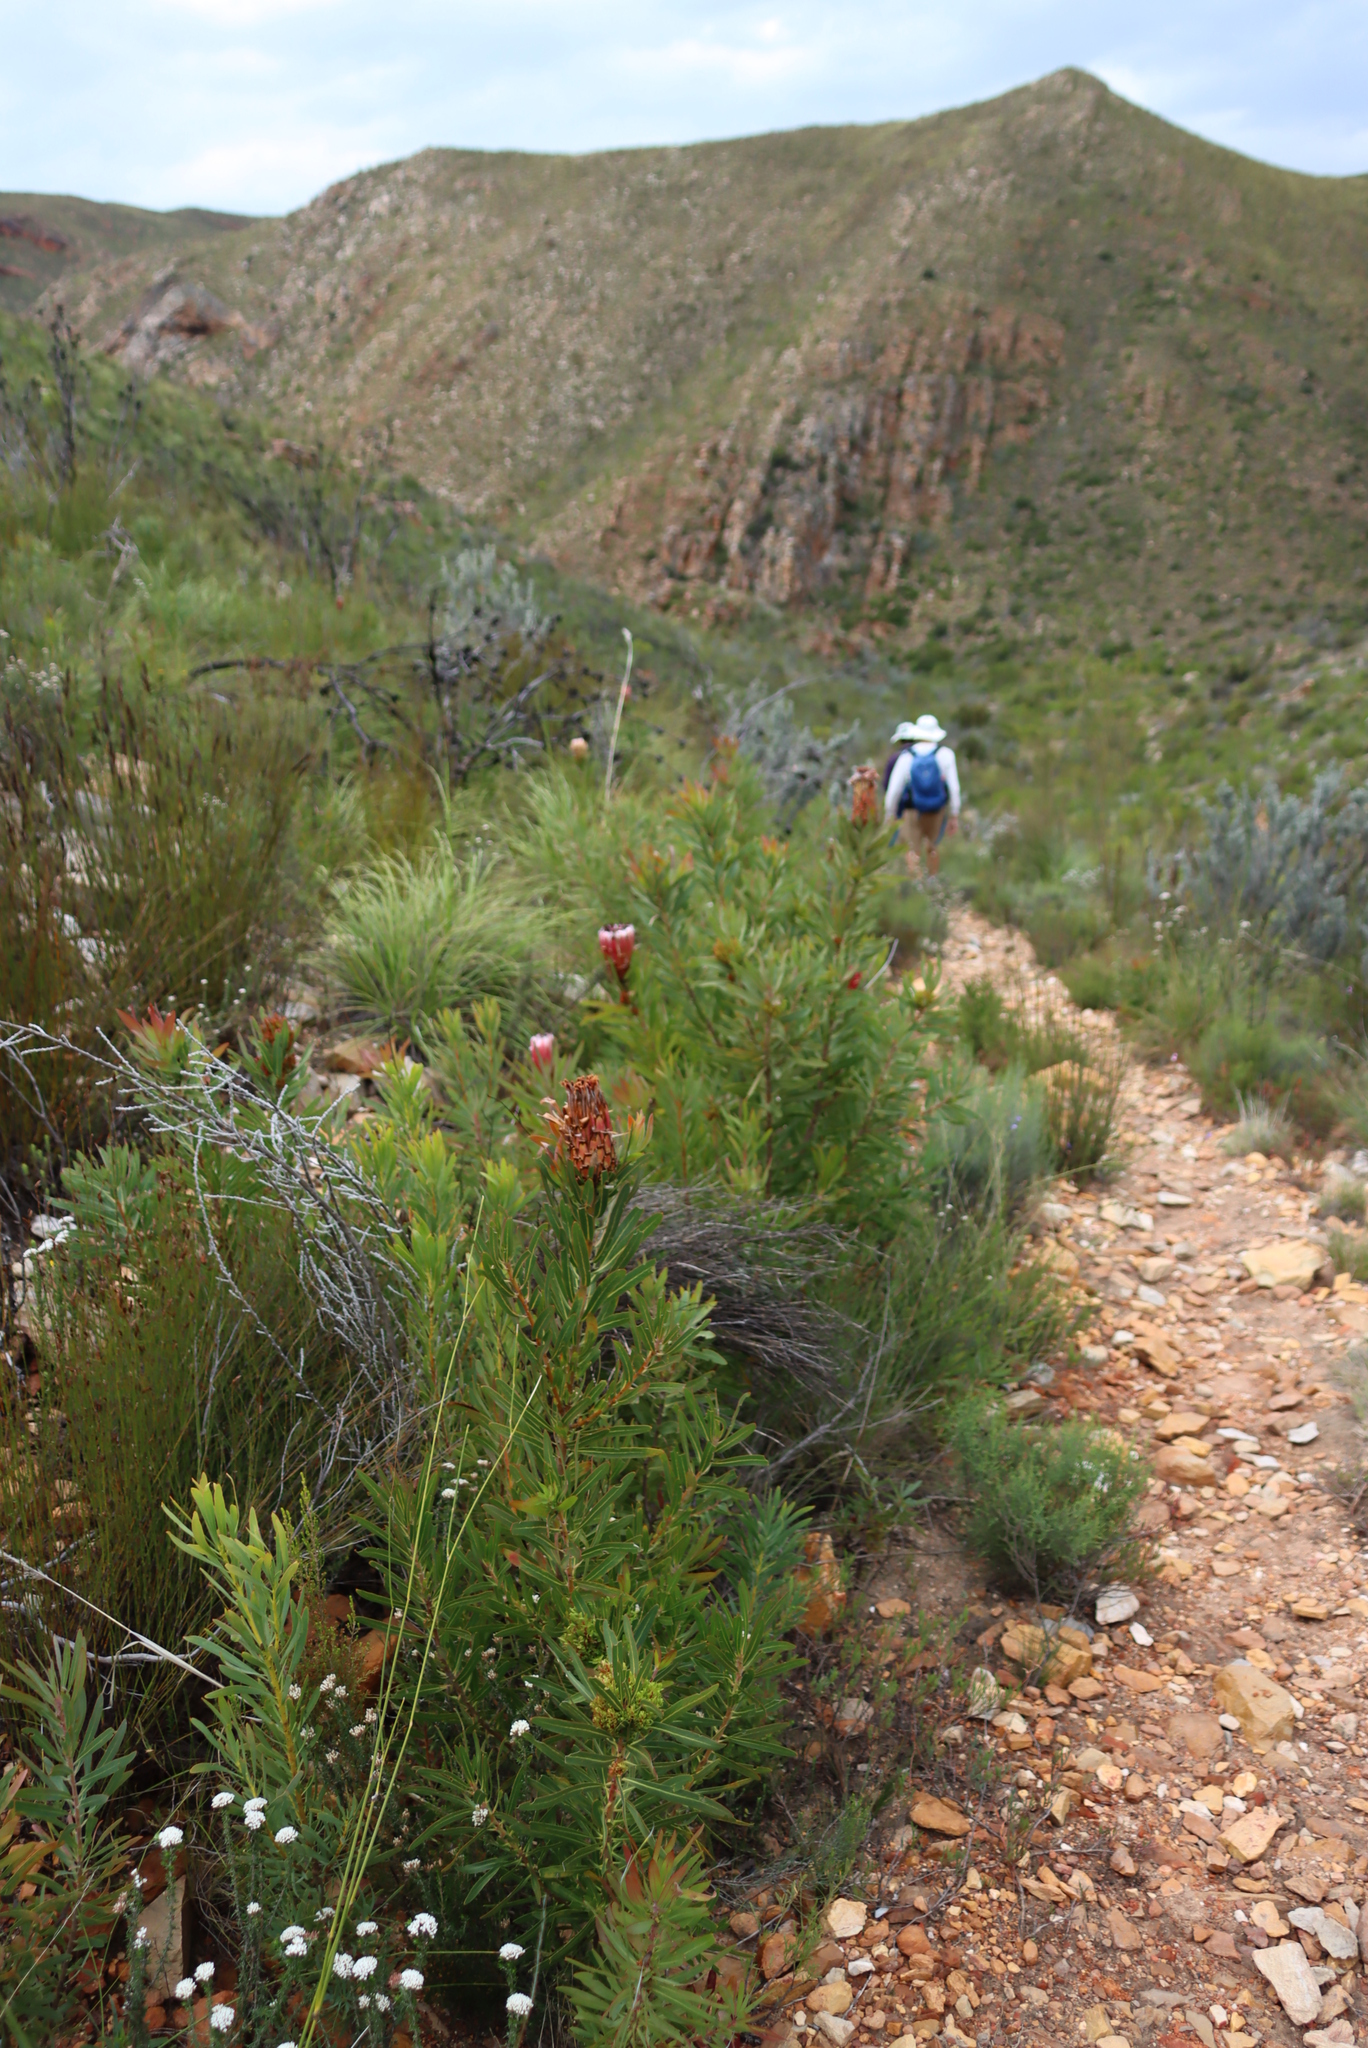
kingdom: Plantae
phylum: Tracheophyta
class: Magnoliopsida
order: Proteales
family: Proteaceae
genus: Protea
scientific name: Protea neriifolia
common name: Blue sugarbush
